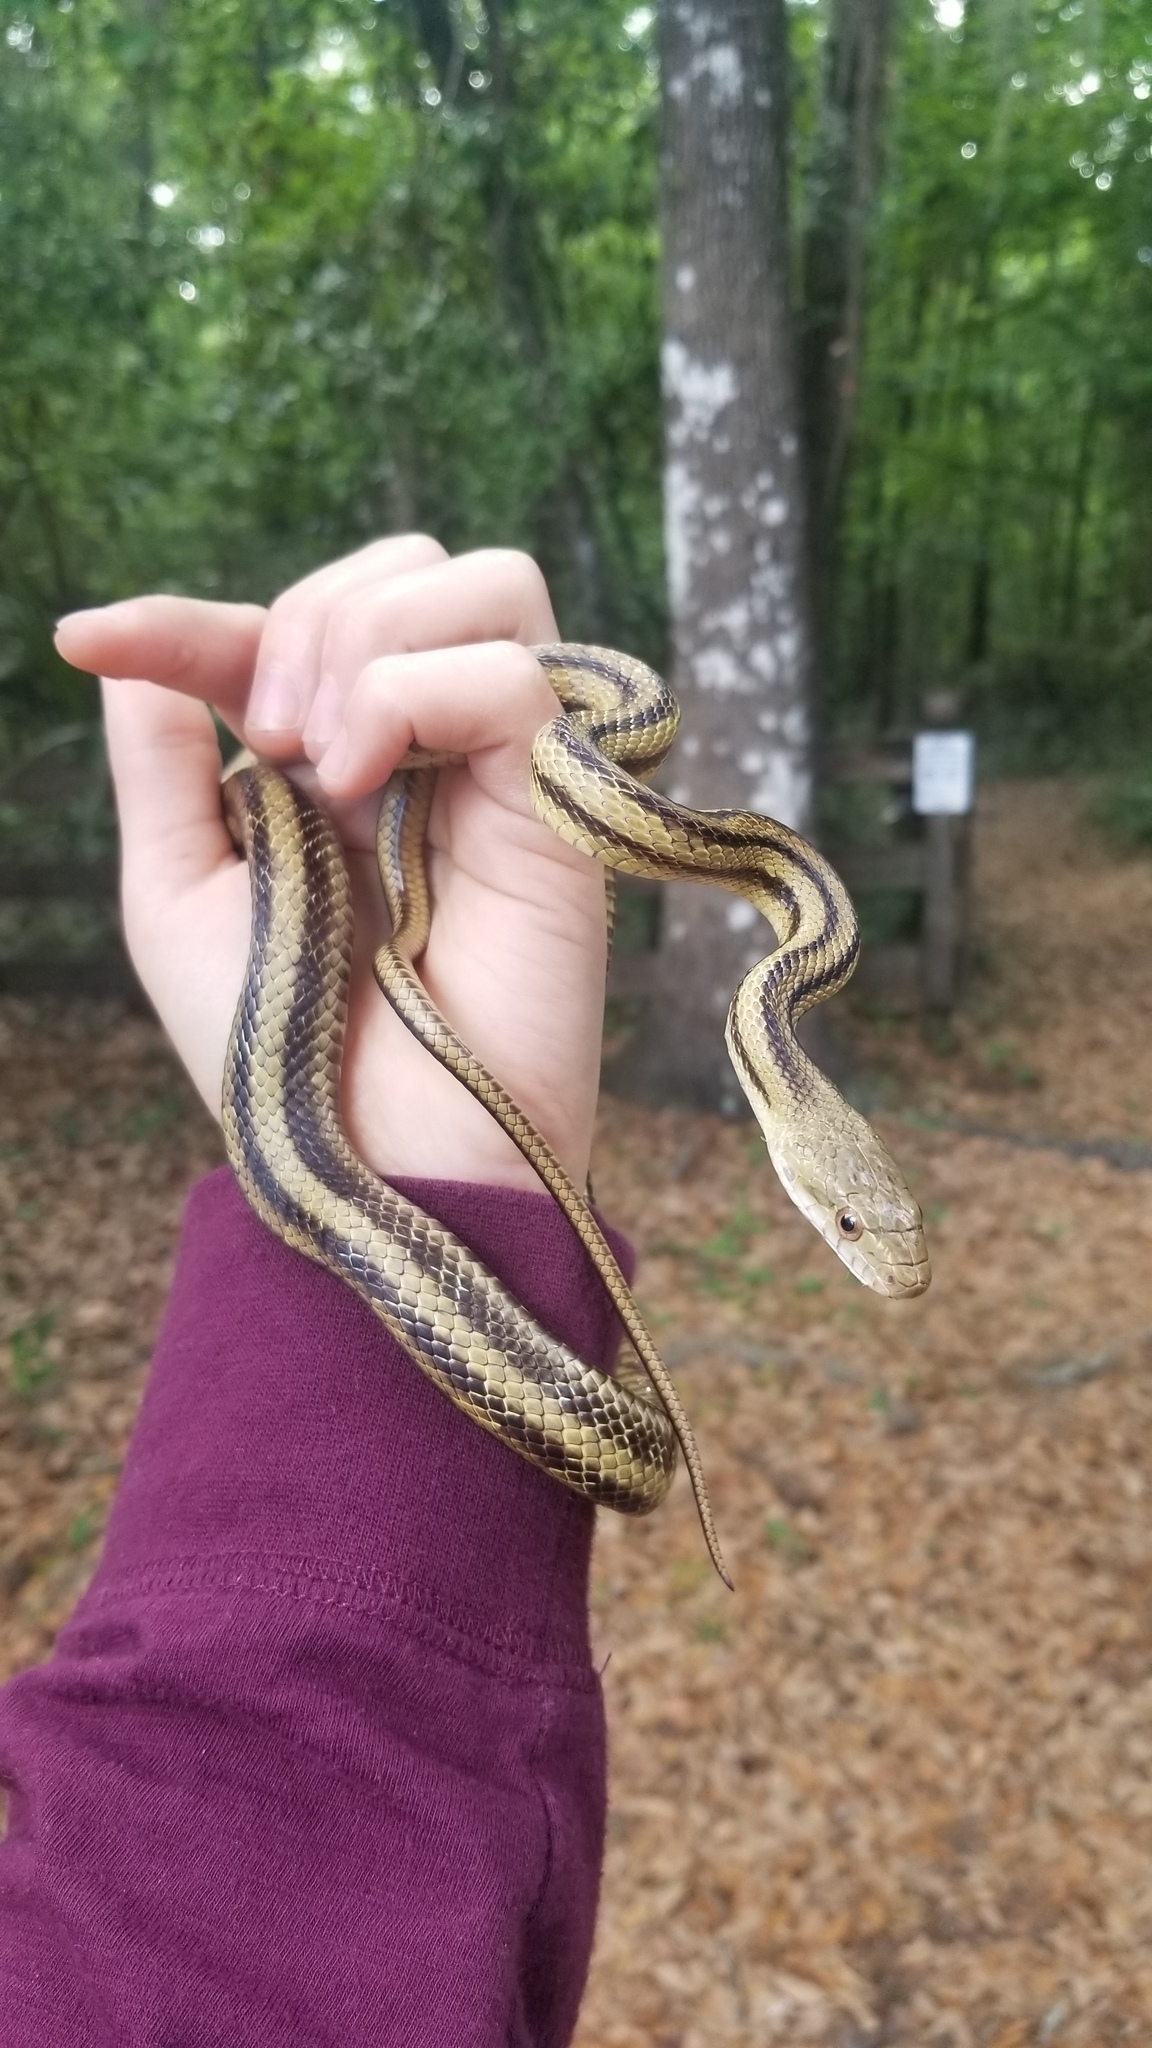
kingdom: Animalia
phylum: Chordata
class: Squamata
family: Colubridae
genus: Pantherophis
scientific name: Pantherophis alleghaniensis
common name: Eastern rat snake
